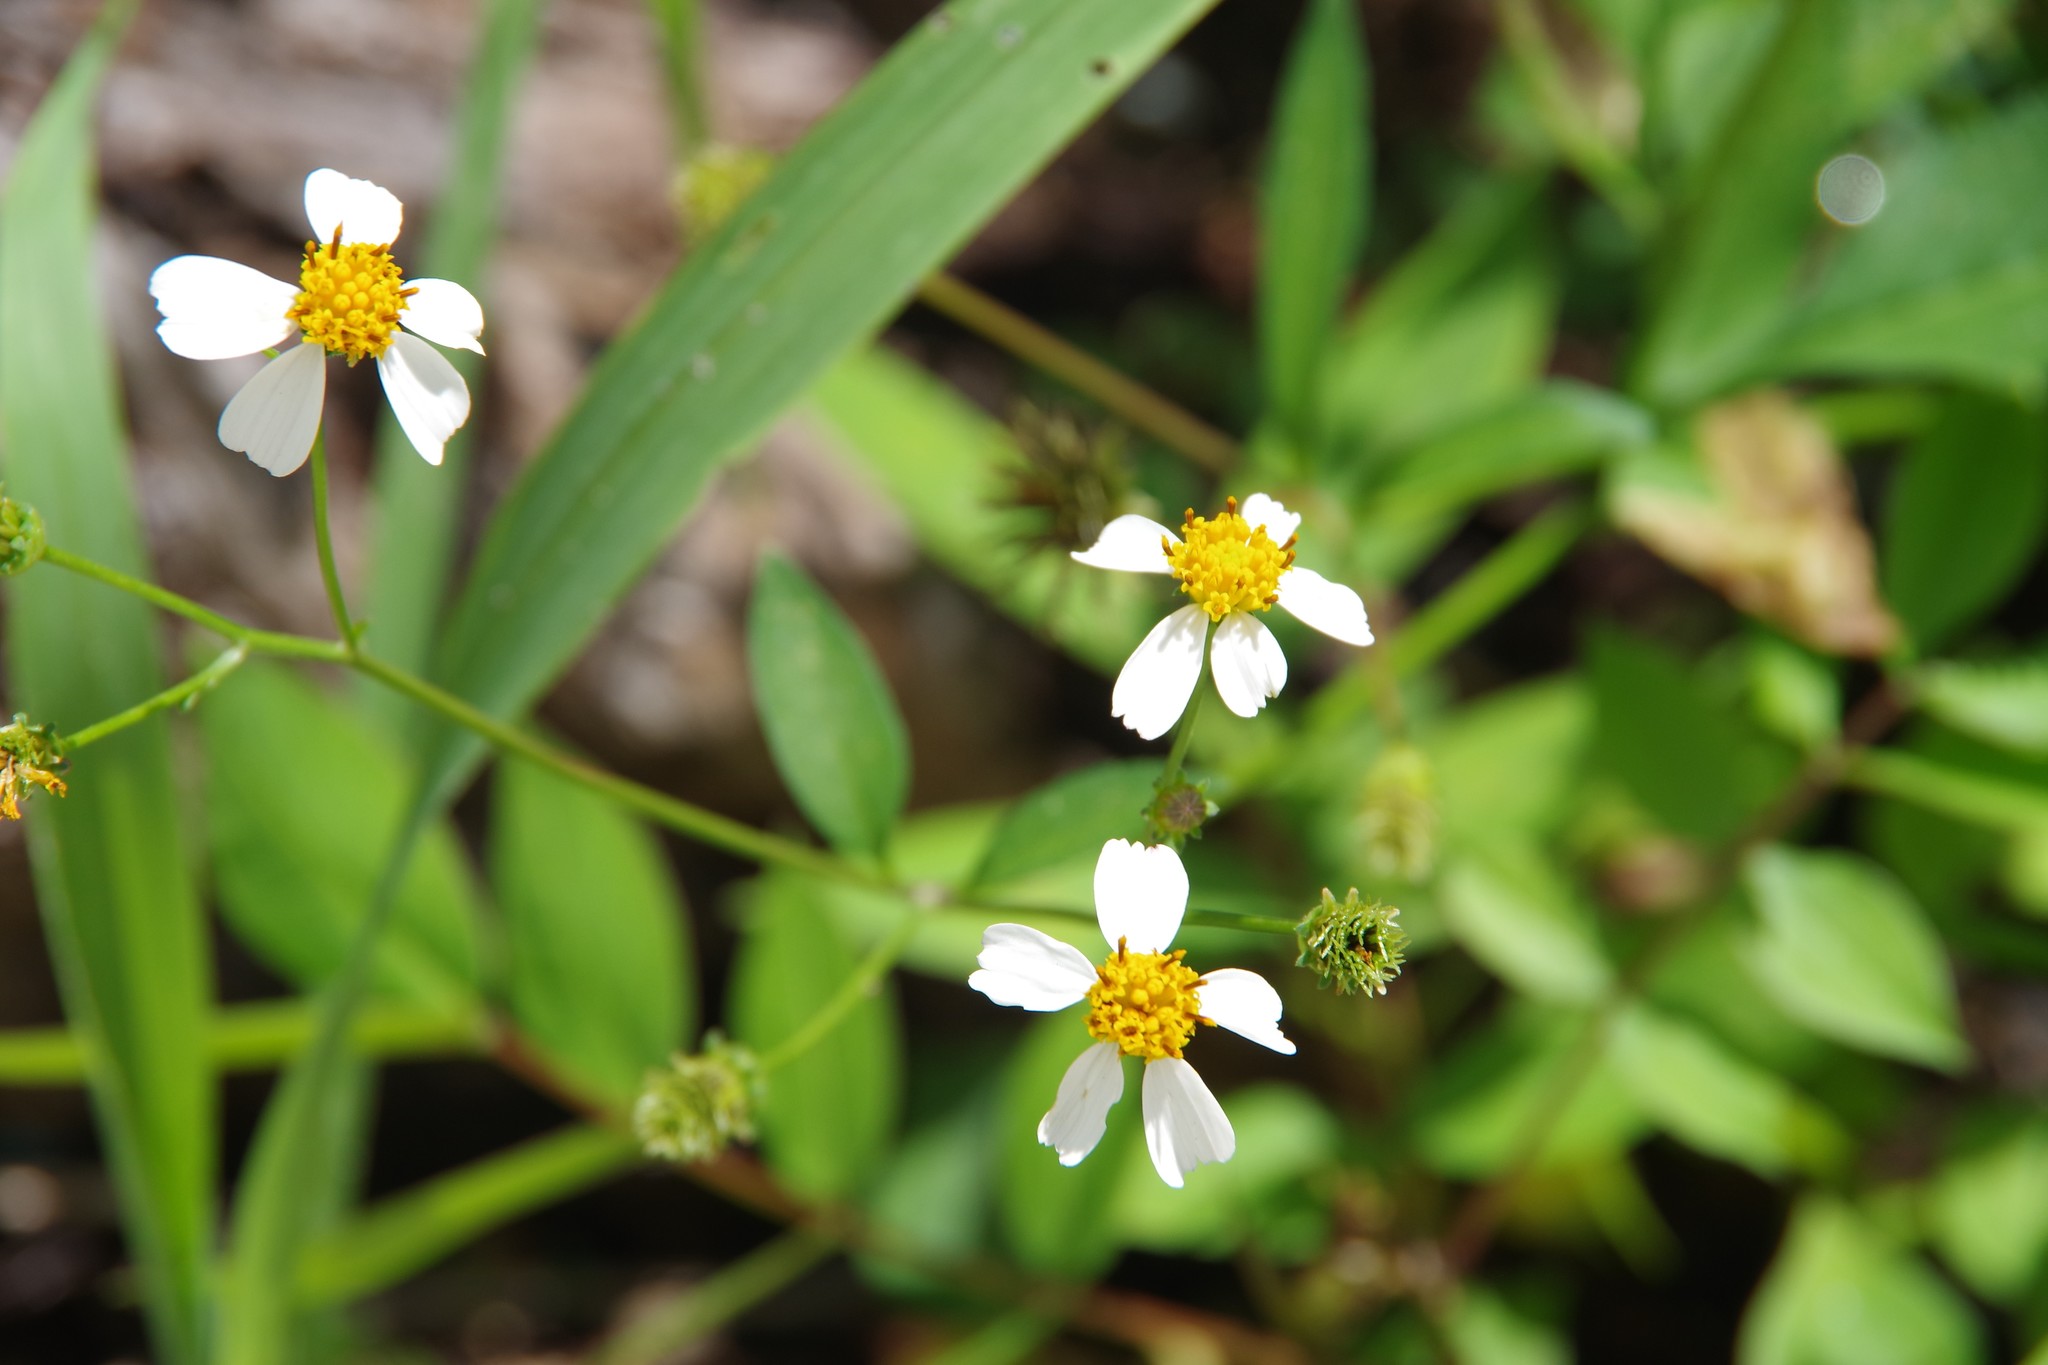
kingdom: Plantae
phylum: Tracheophyta
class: Magnoliopsida
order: Asterales
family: Asteraceae
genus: Bidens
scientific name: Bidens alba
